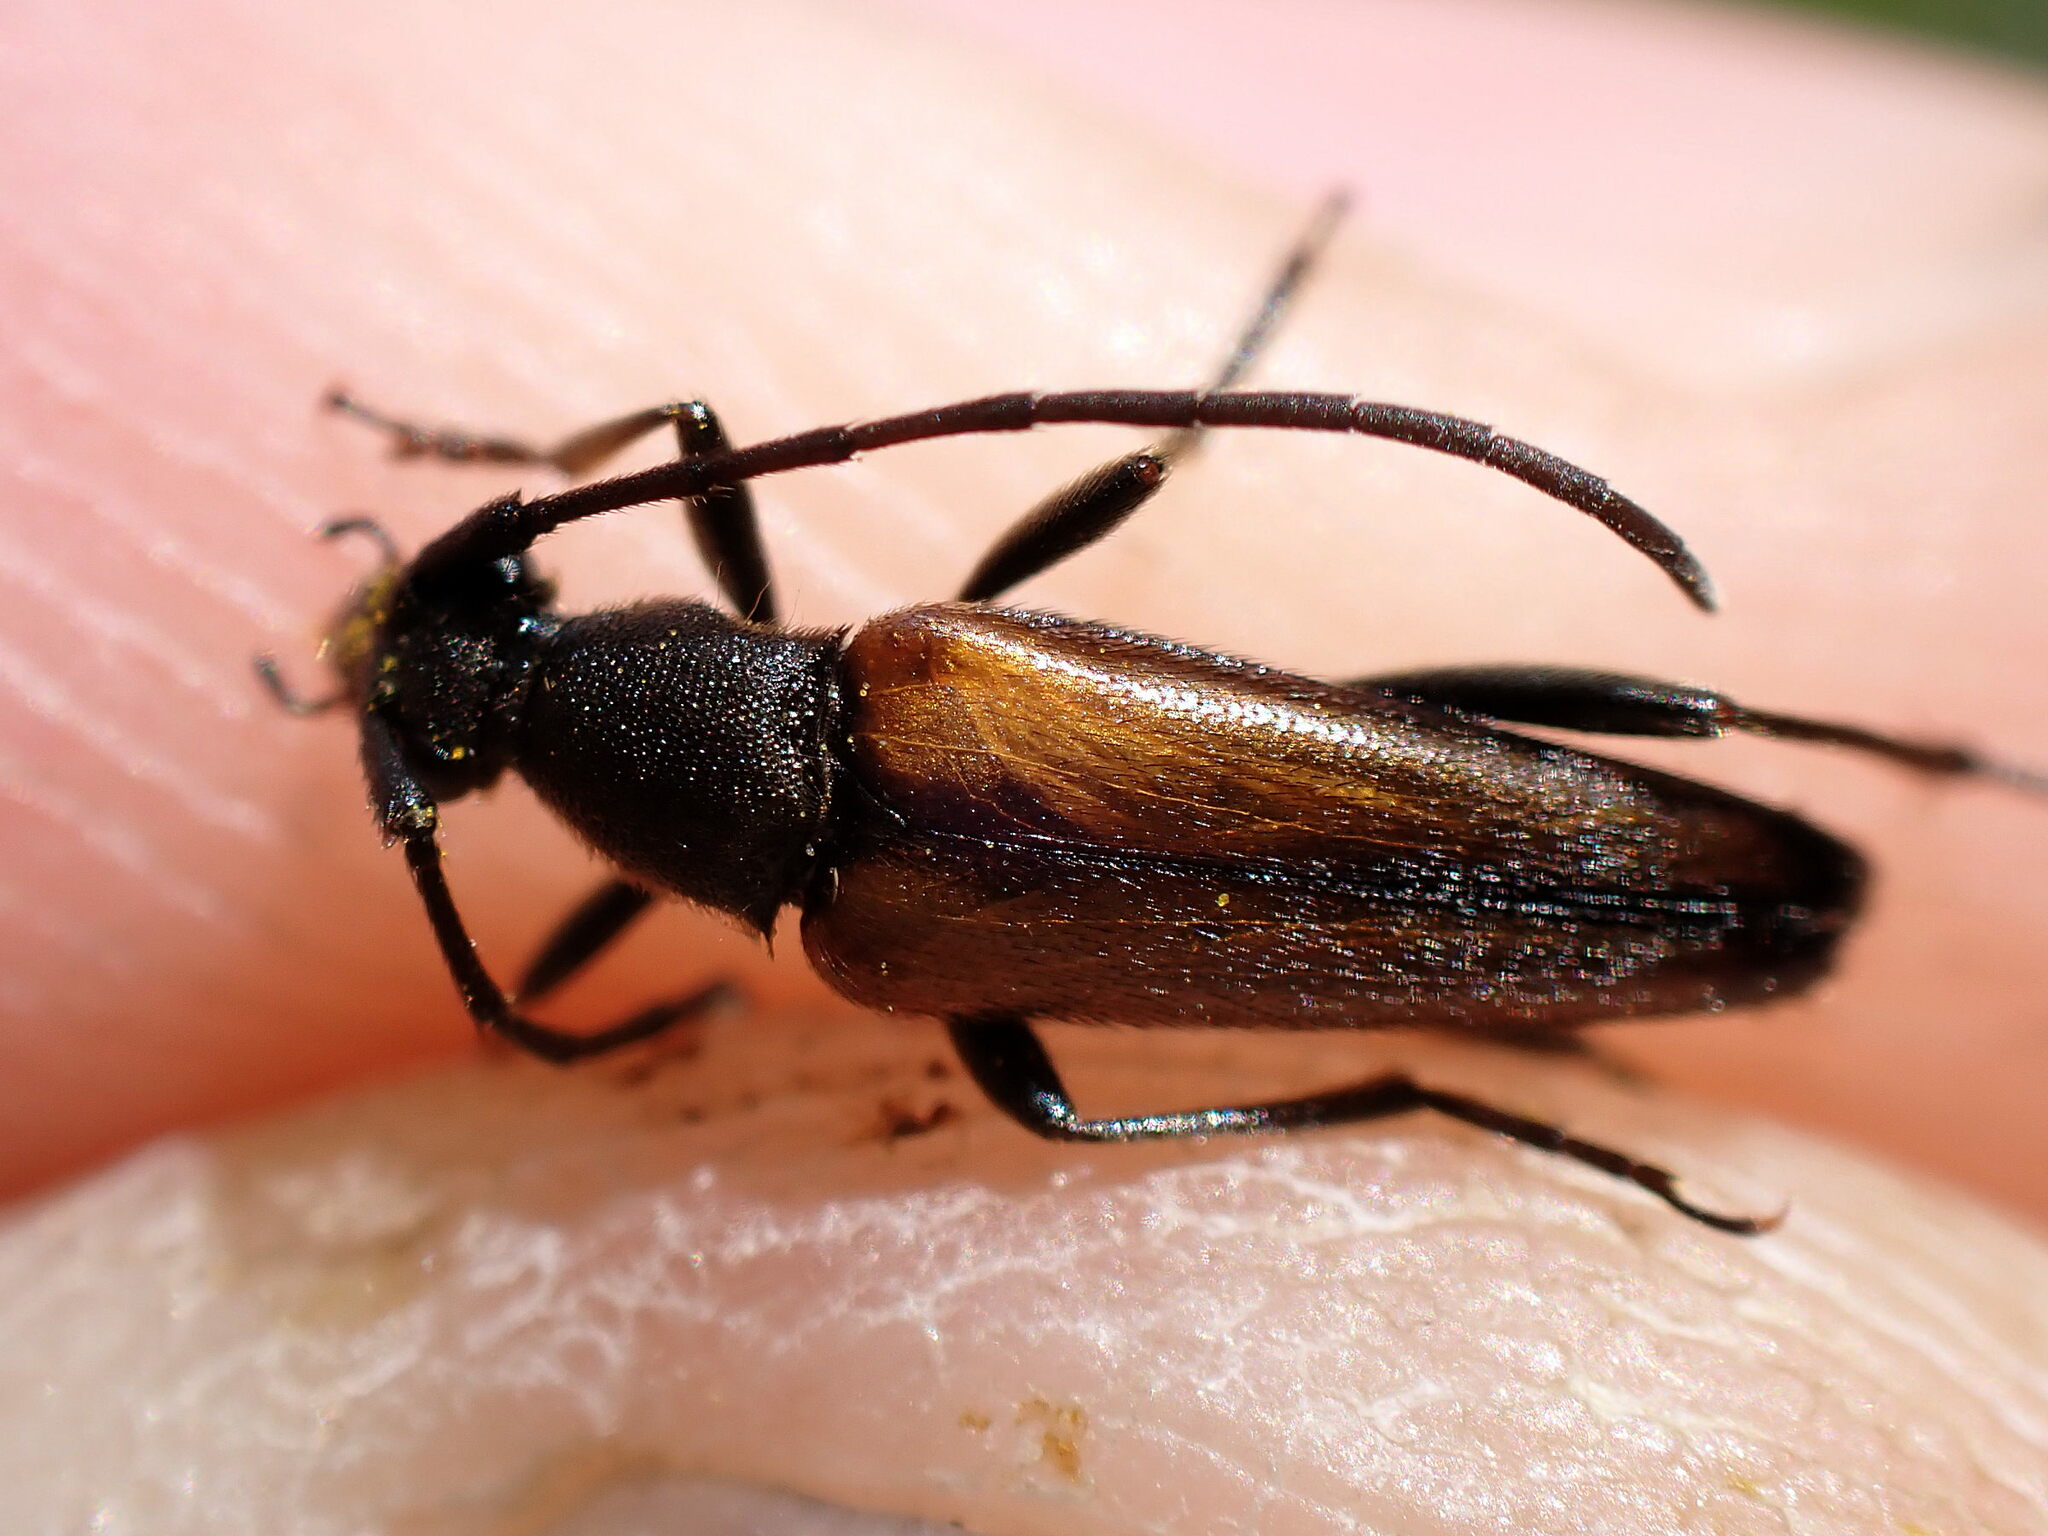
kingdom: Animalia
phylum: Arthropoda
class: Insecta
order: Coleoptera
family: Cerambycidae
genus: Stenurella
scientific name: Stenurella melanura
